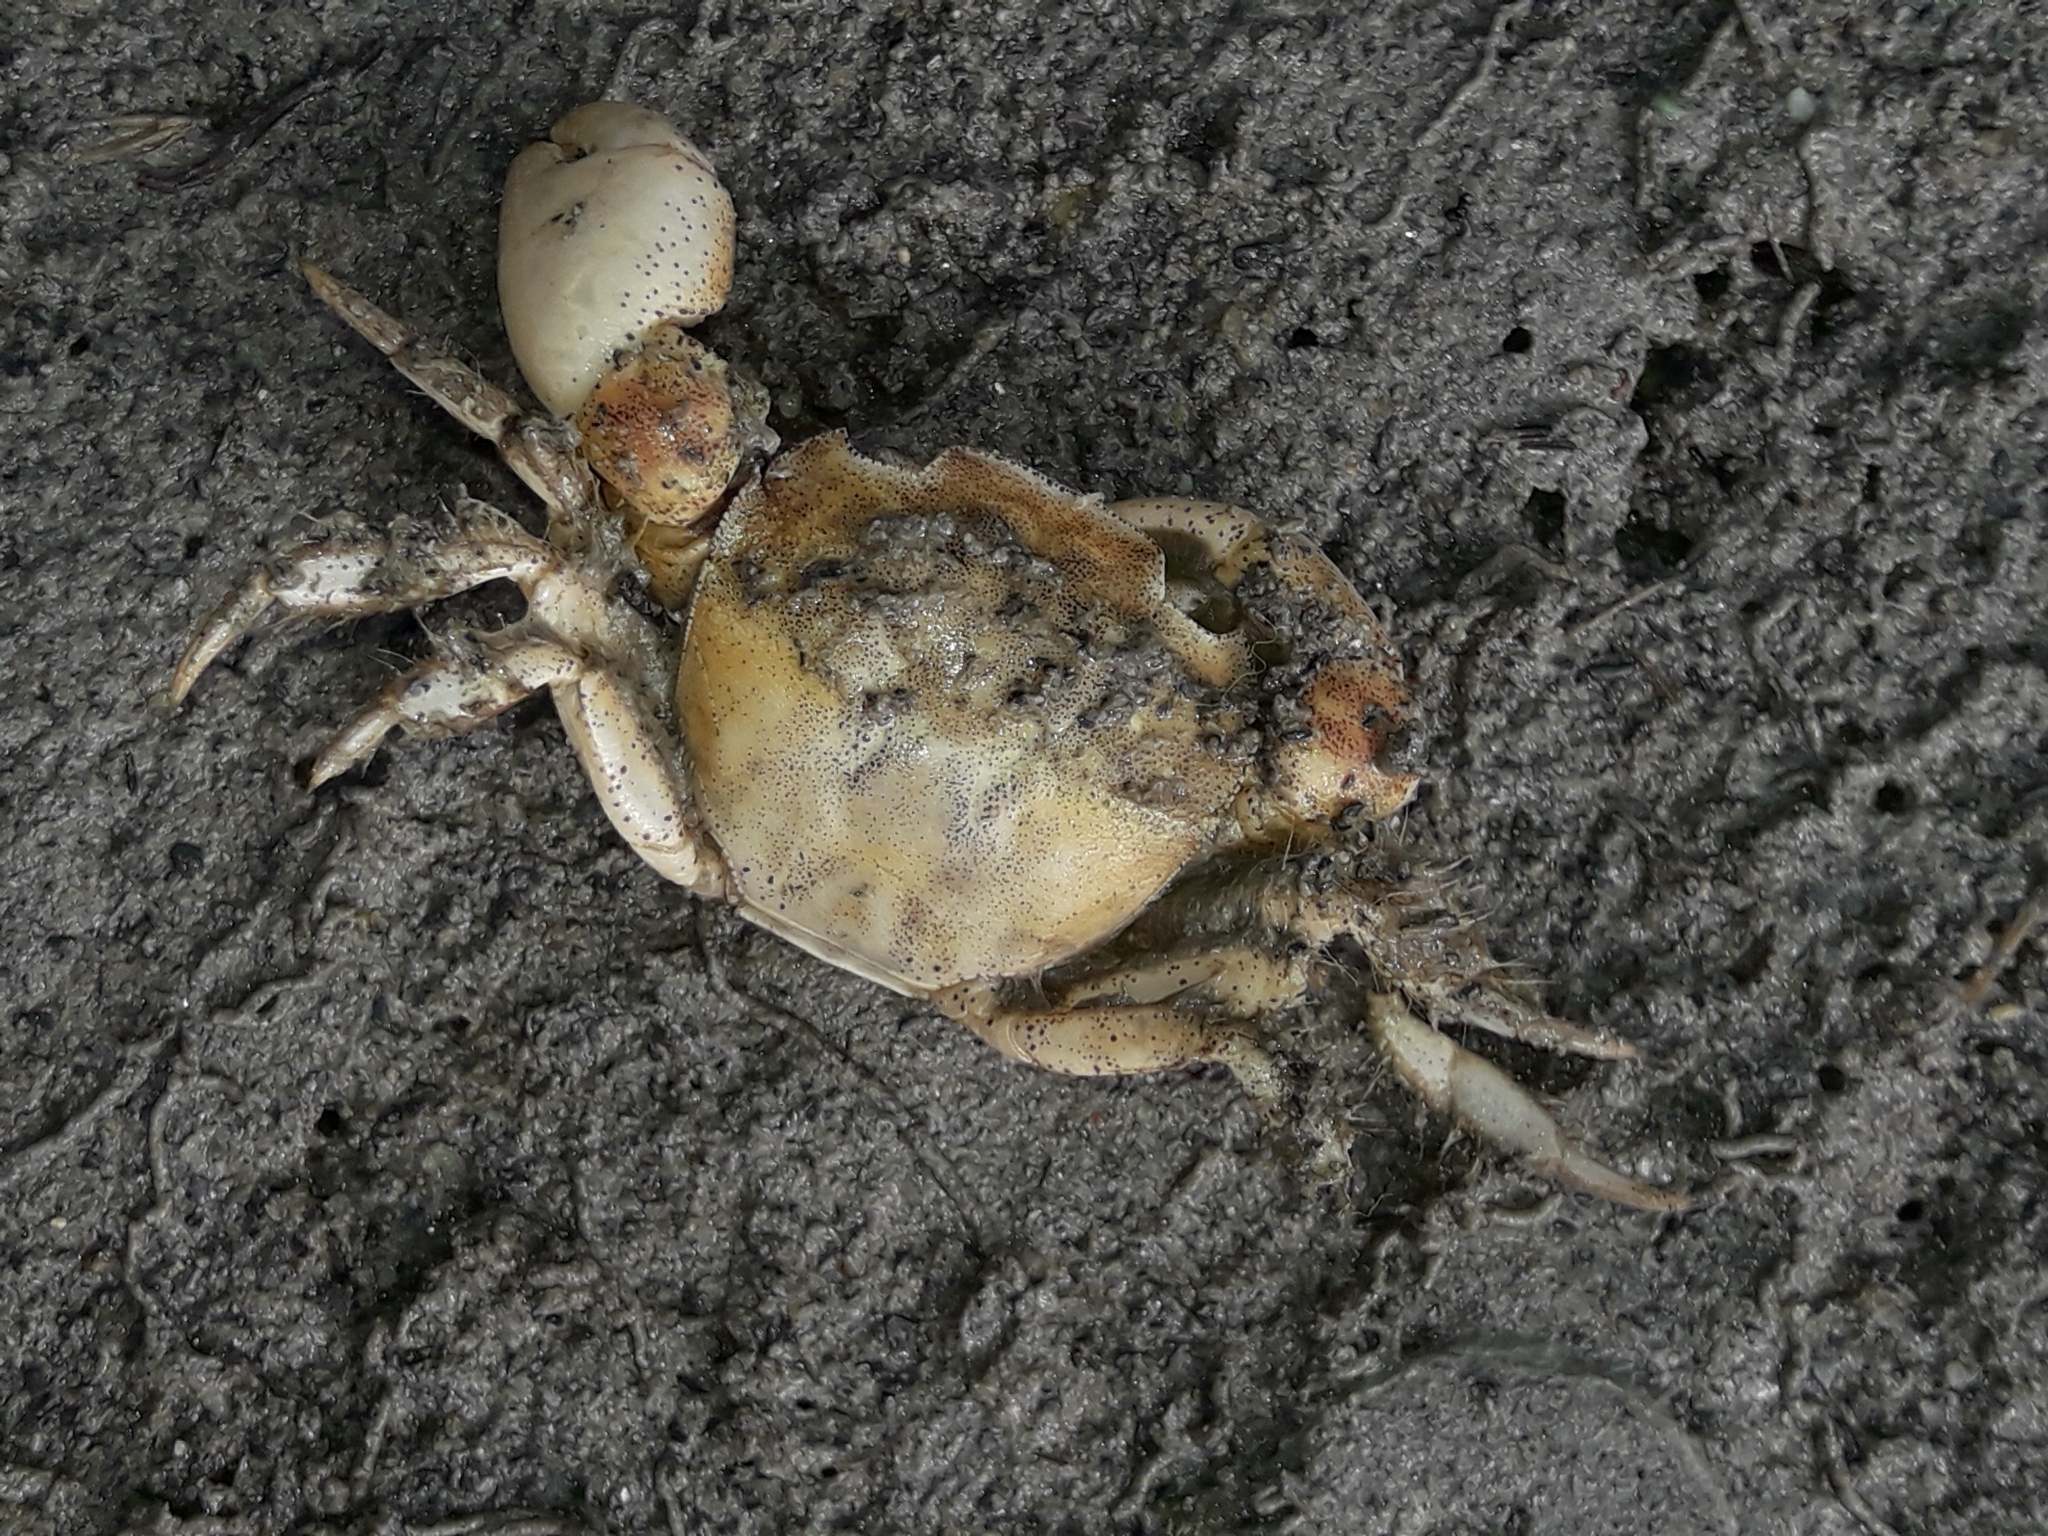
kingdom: Animalia
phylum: Arthropoda
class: Malacostraca
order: Decapoda
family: Varunidae
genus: Hemigrapsus
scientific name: Hemigrapsus crenulatus
